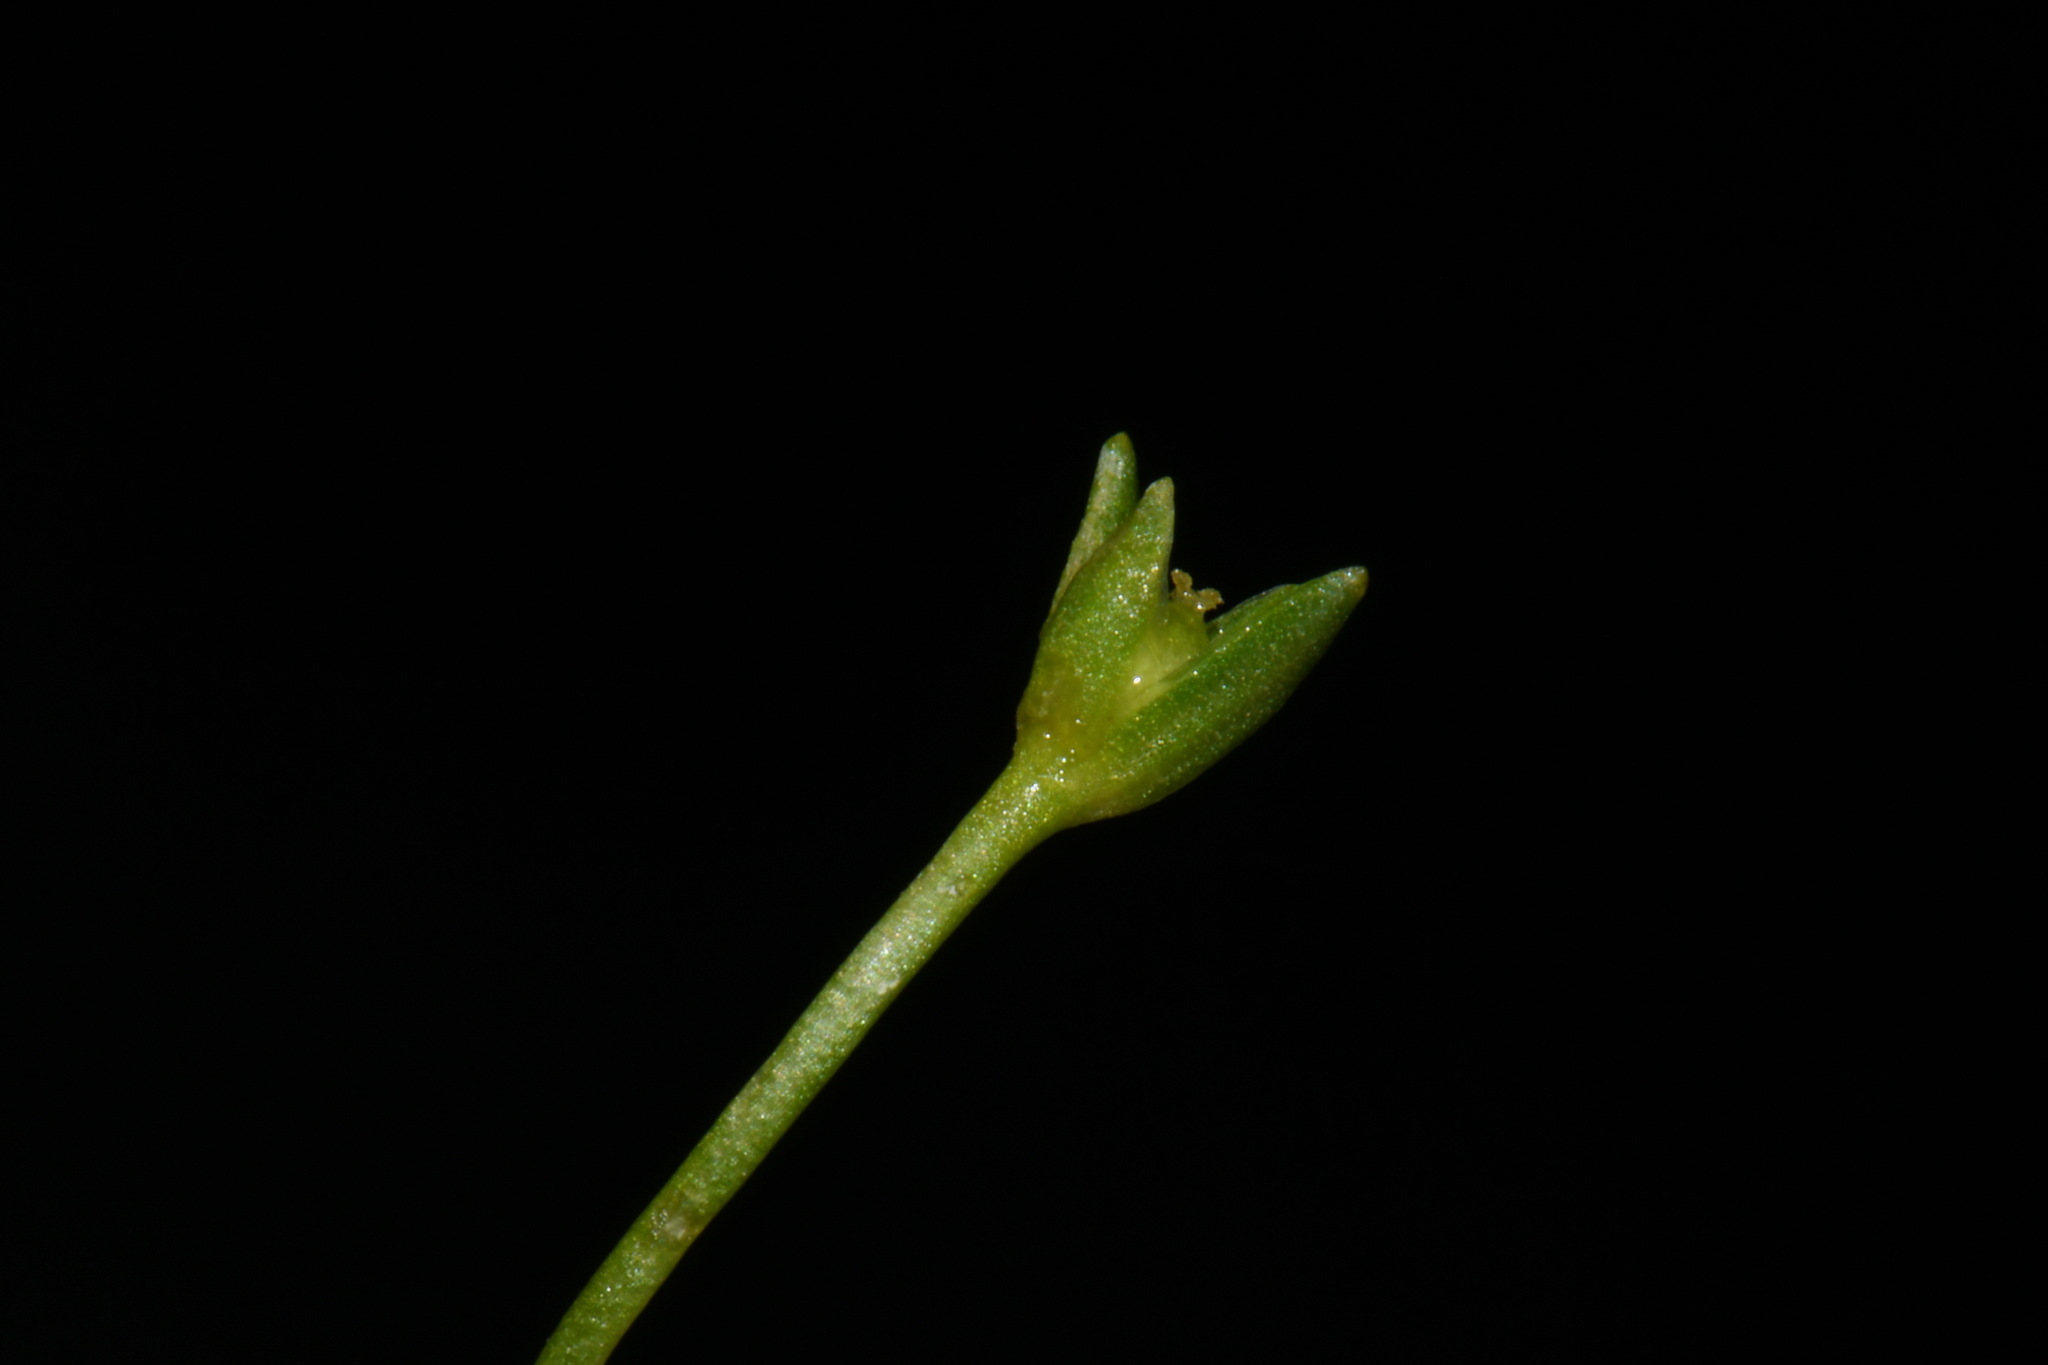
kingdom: Plantae
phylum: Tracheophyta
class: Magnoliopsida
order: Caryophyllales
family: Caryophyllaceae
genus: Sabulina
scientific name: Sabulina fontinalis
